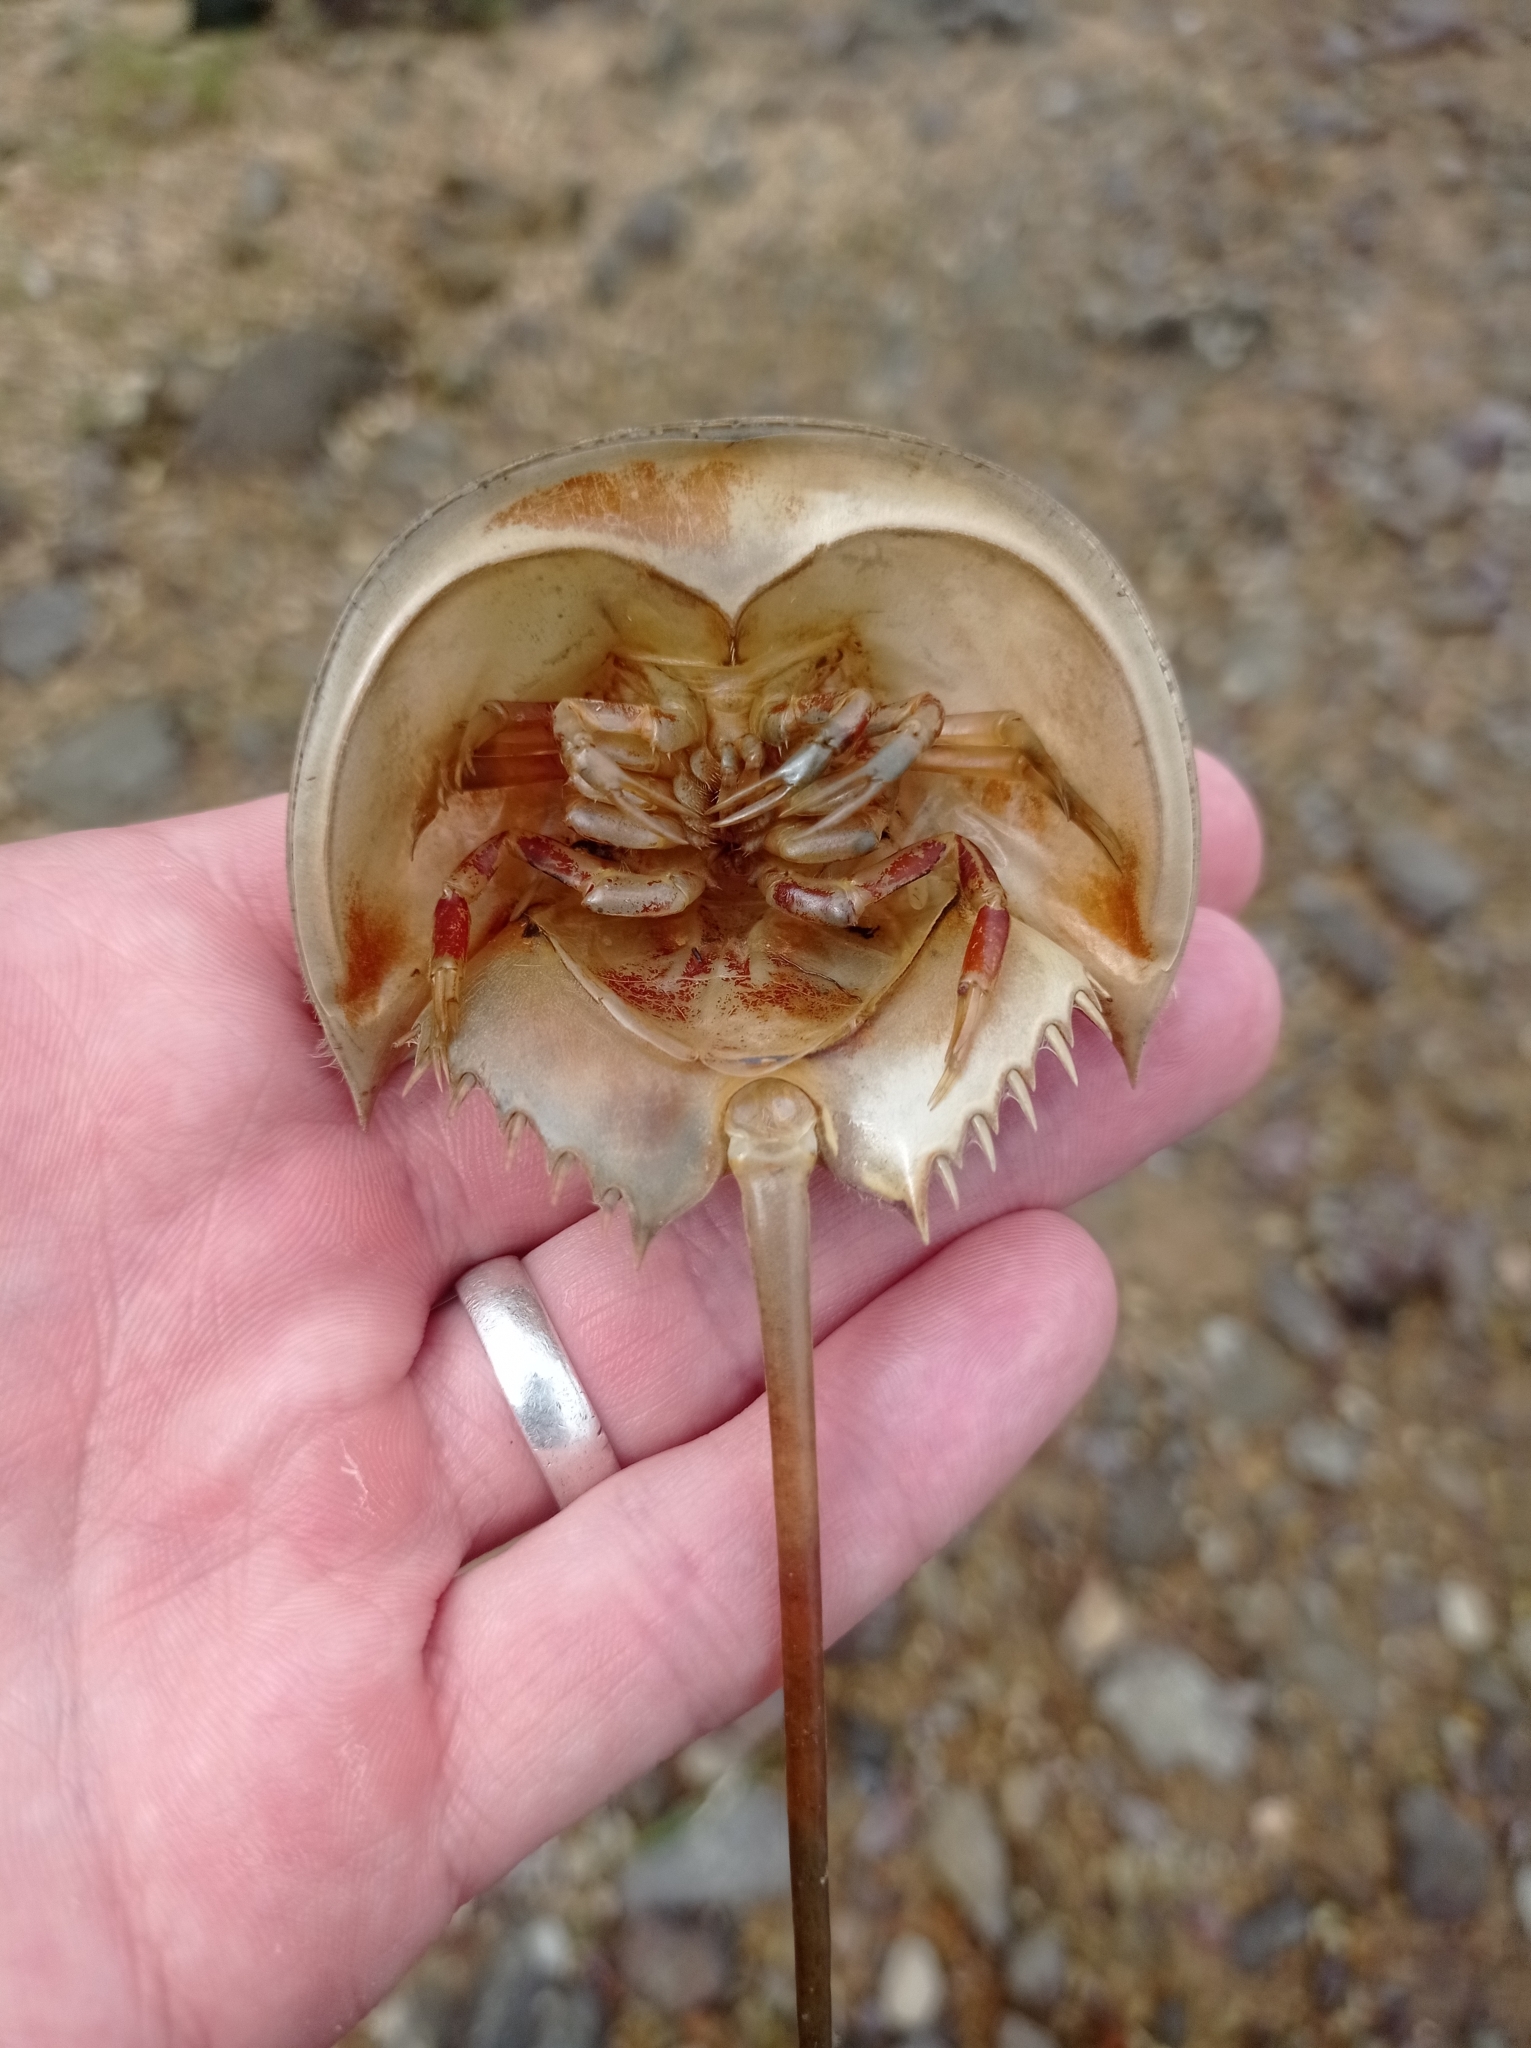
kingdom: Animalia
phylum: Arthropoda
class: Merostomata
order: Xiphosurida
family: Limulidae
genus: Carcinoscorpius
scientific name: Carcinoscorpius rotundicauda
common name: Horseshoe crab
